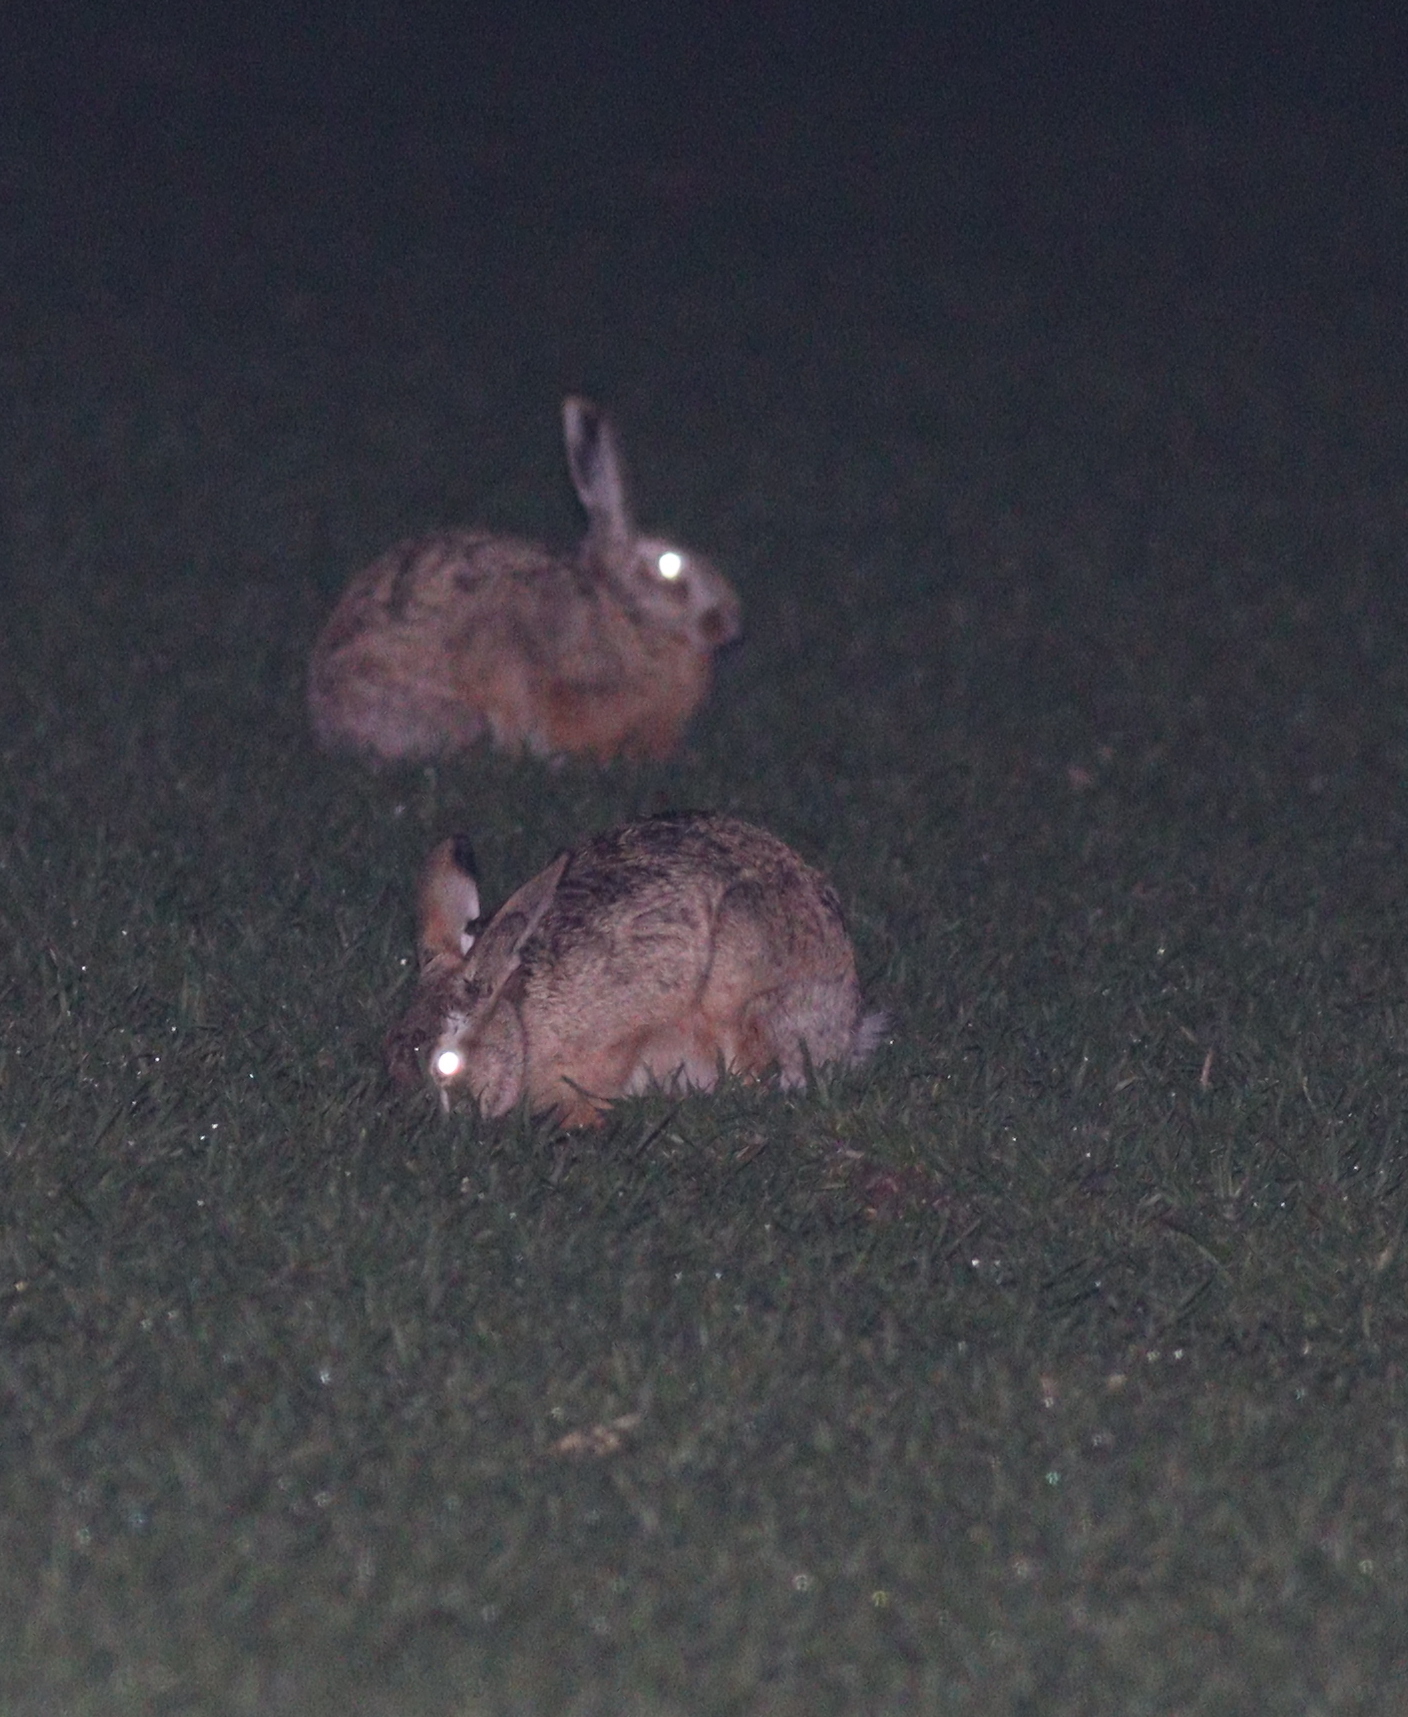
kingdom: Animalia
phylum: Chordata
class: Mammalia
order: Lagomorpha
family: Leporidae
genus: Lepus
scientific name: Lepus europaeus
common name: European hare
